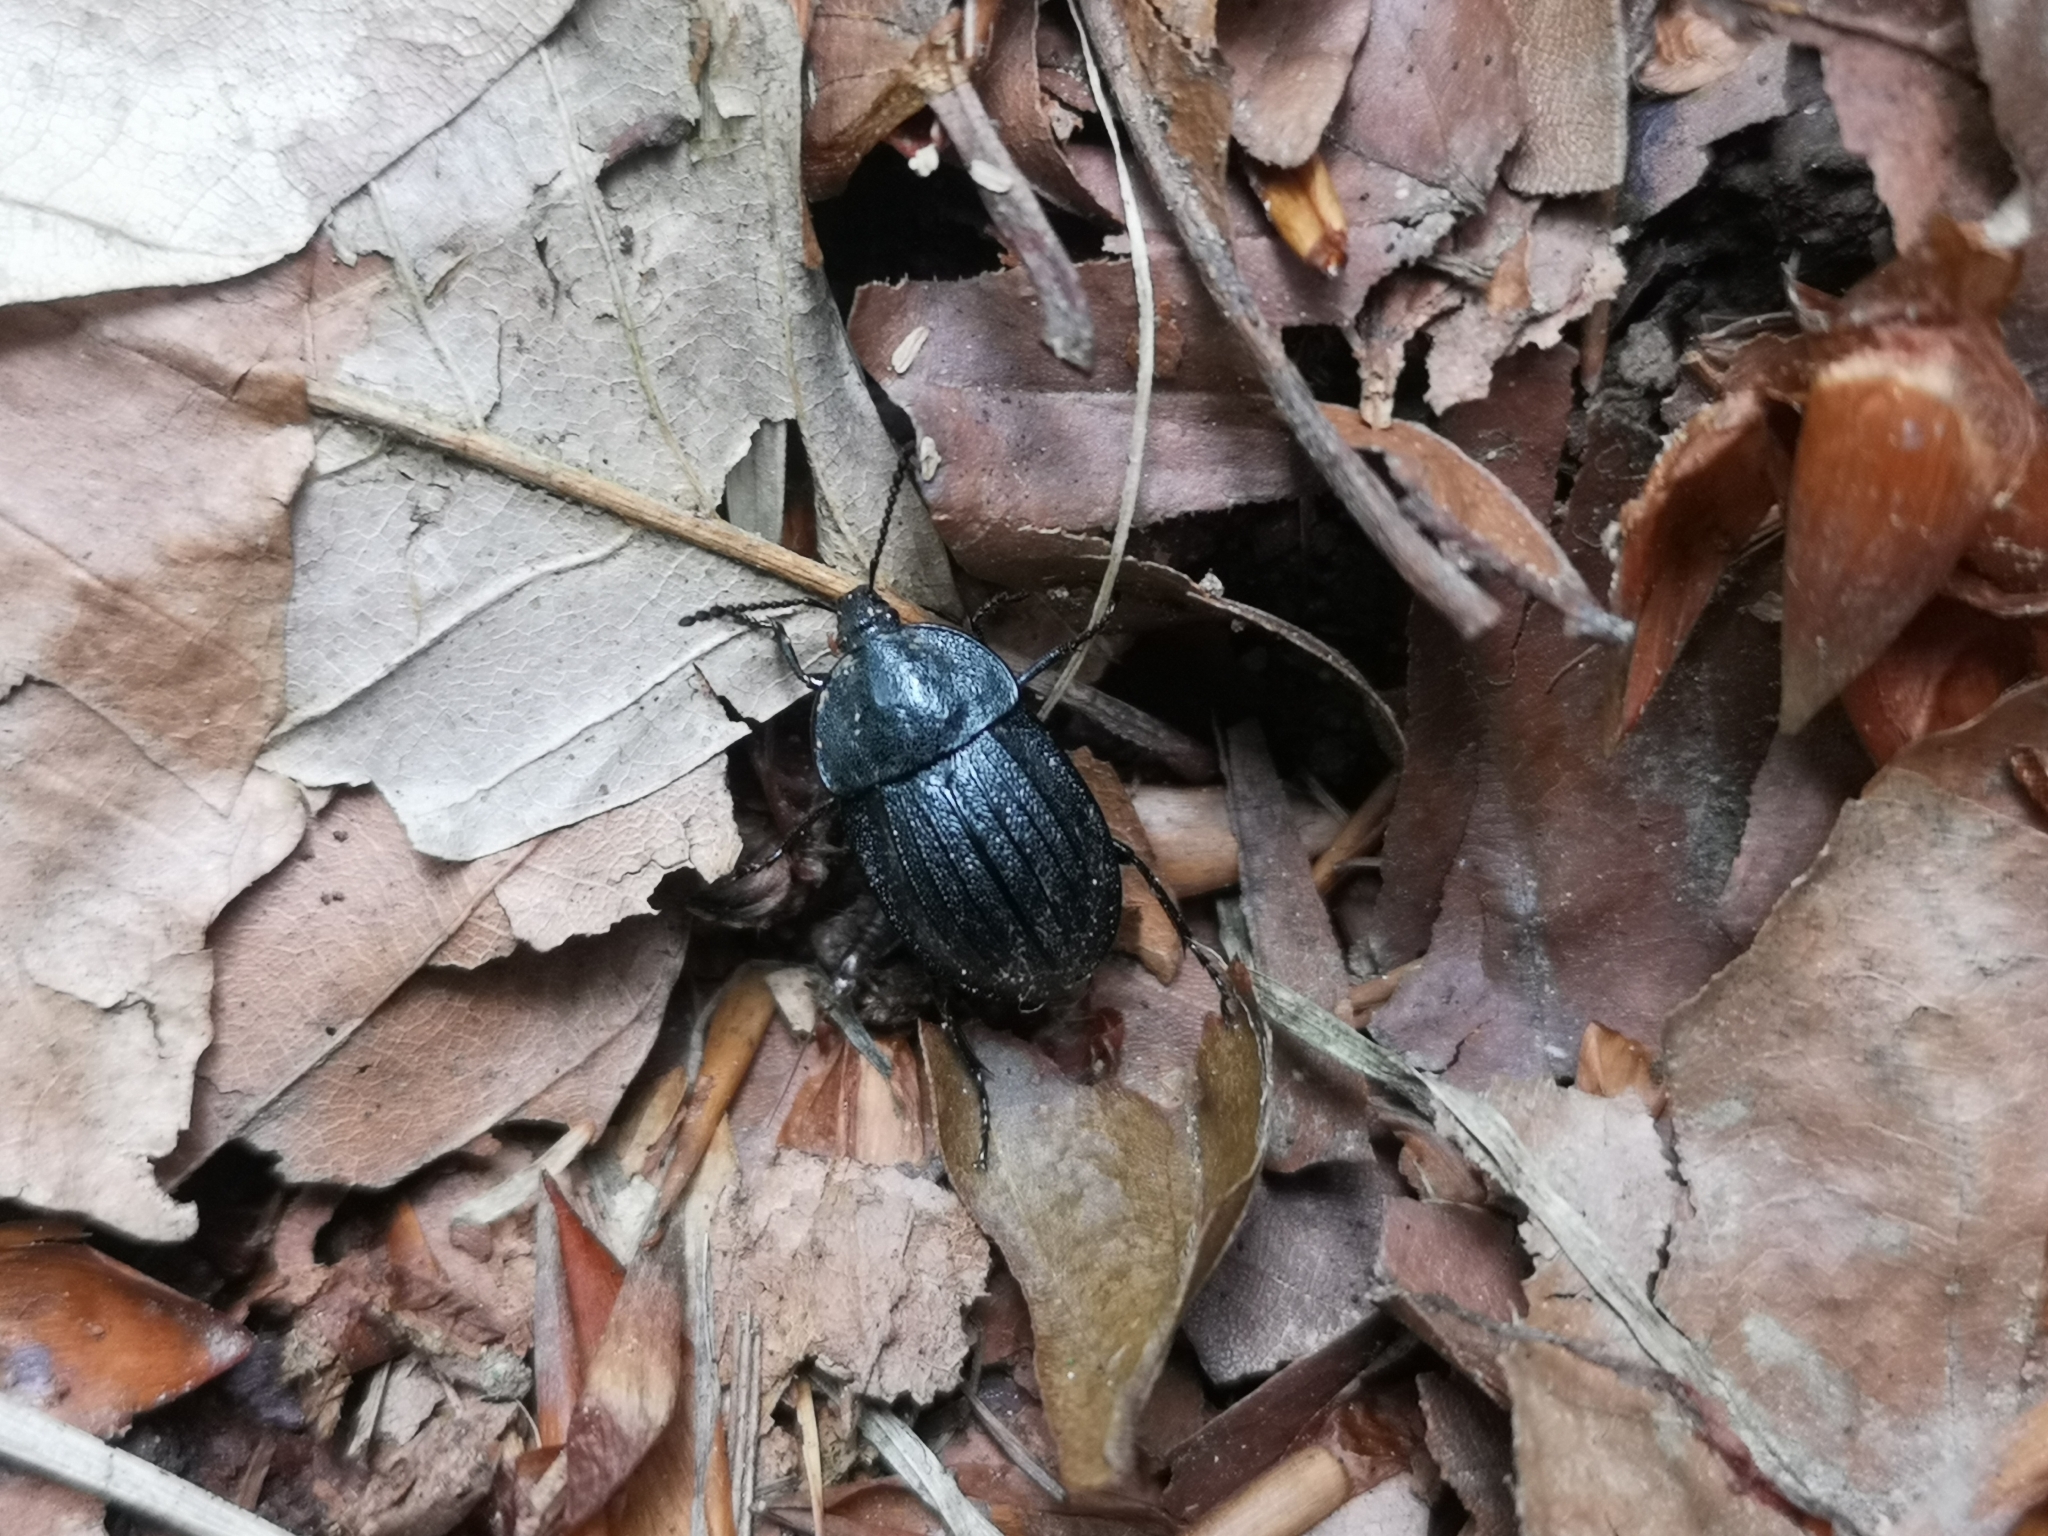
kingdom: Animalia
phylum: Arthropoda
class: Insecta
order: Coleoptera
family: Staphylinidae
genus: Silpha
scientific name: Silpha atrata
